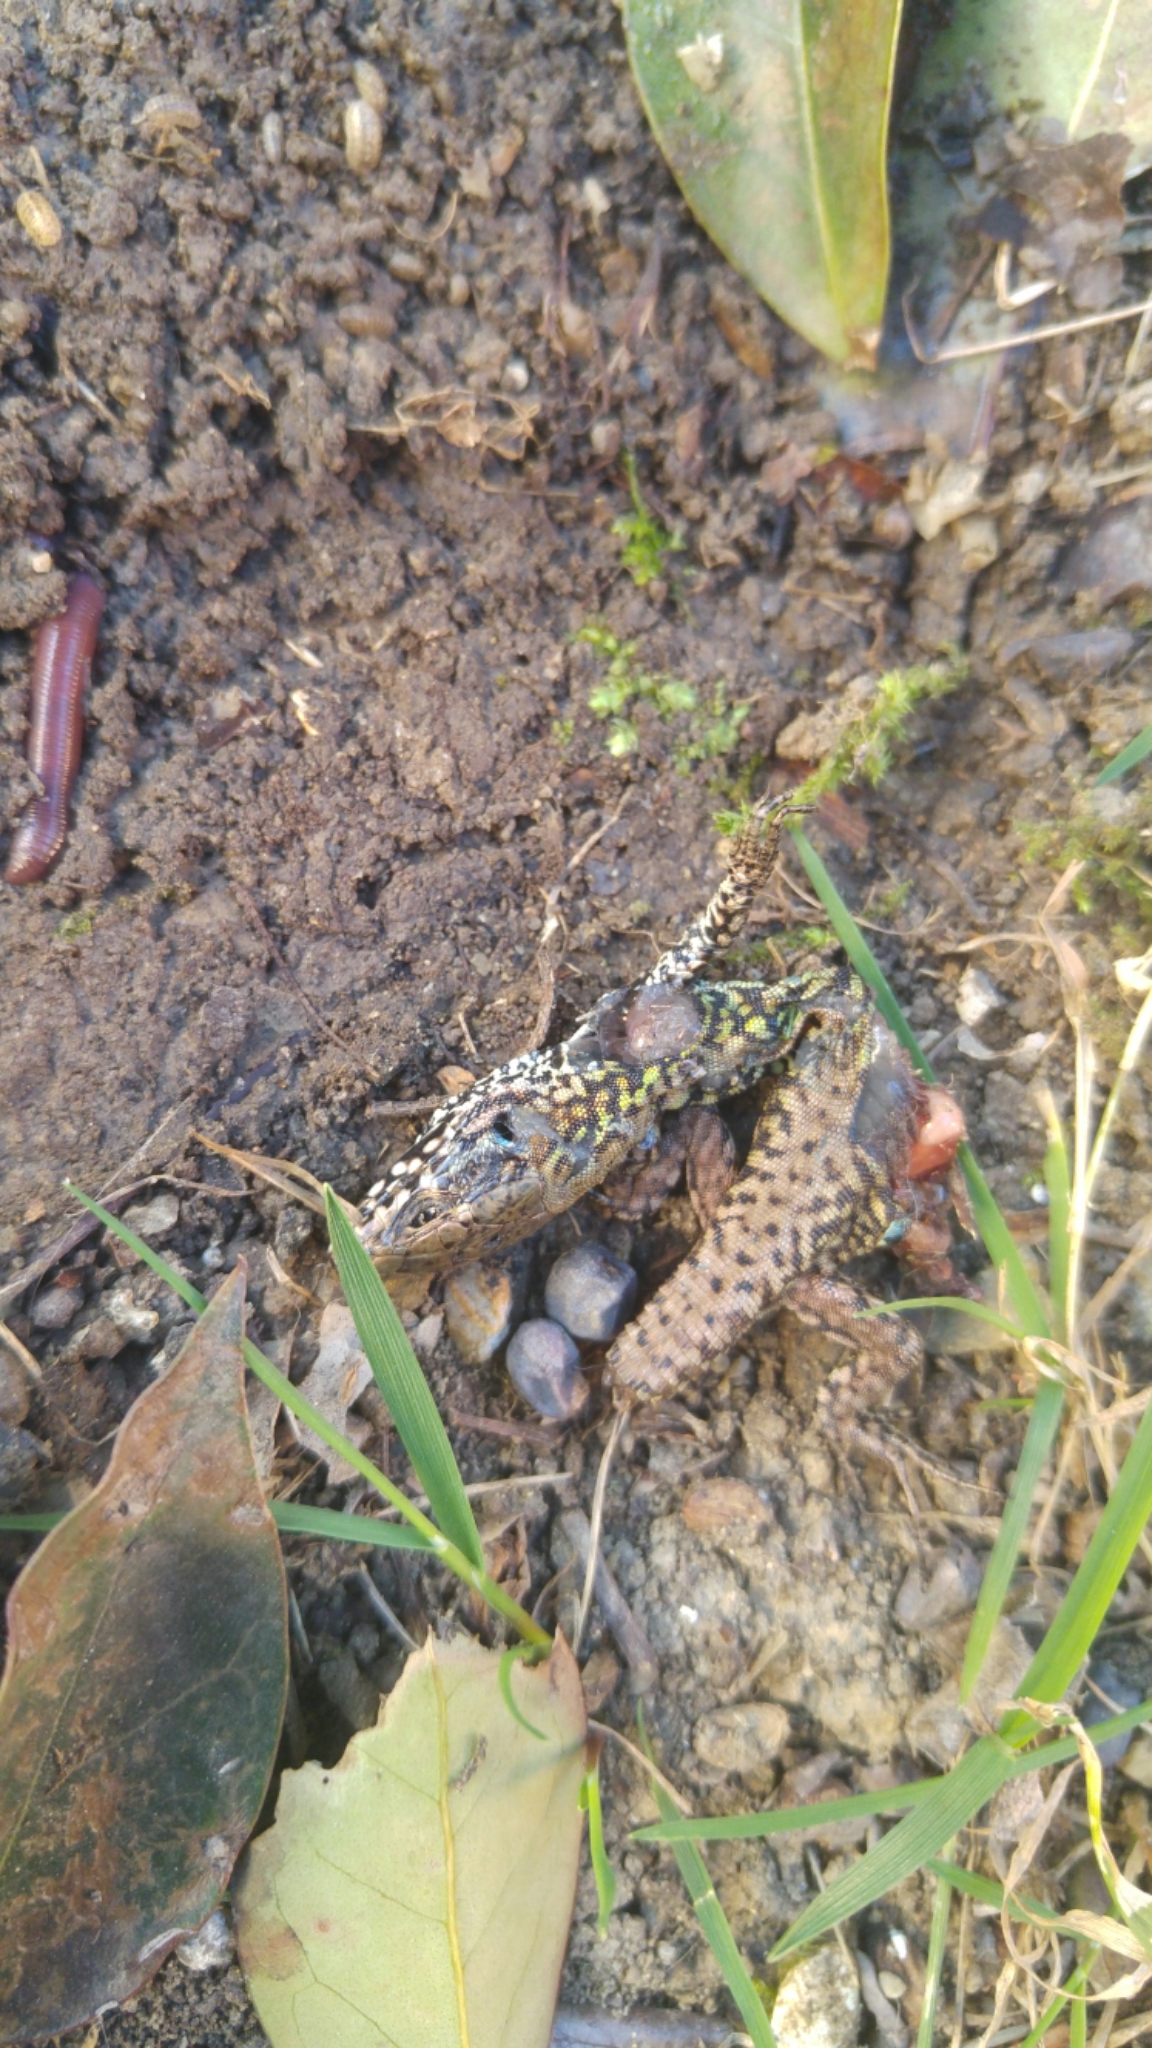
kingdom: Animalia
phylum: Chordata
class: Squamata
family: Lacertidae
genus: Podarcis
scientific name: Podarcis muralis
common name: Common wall lizard
